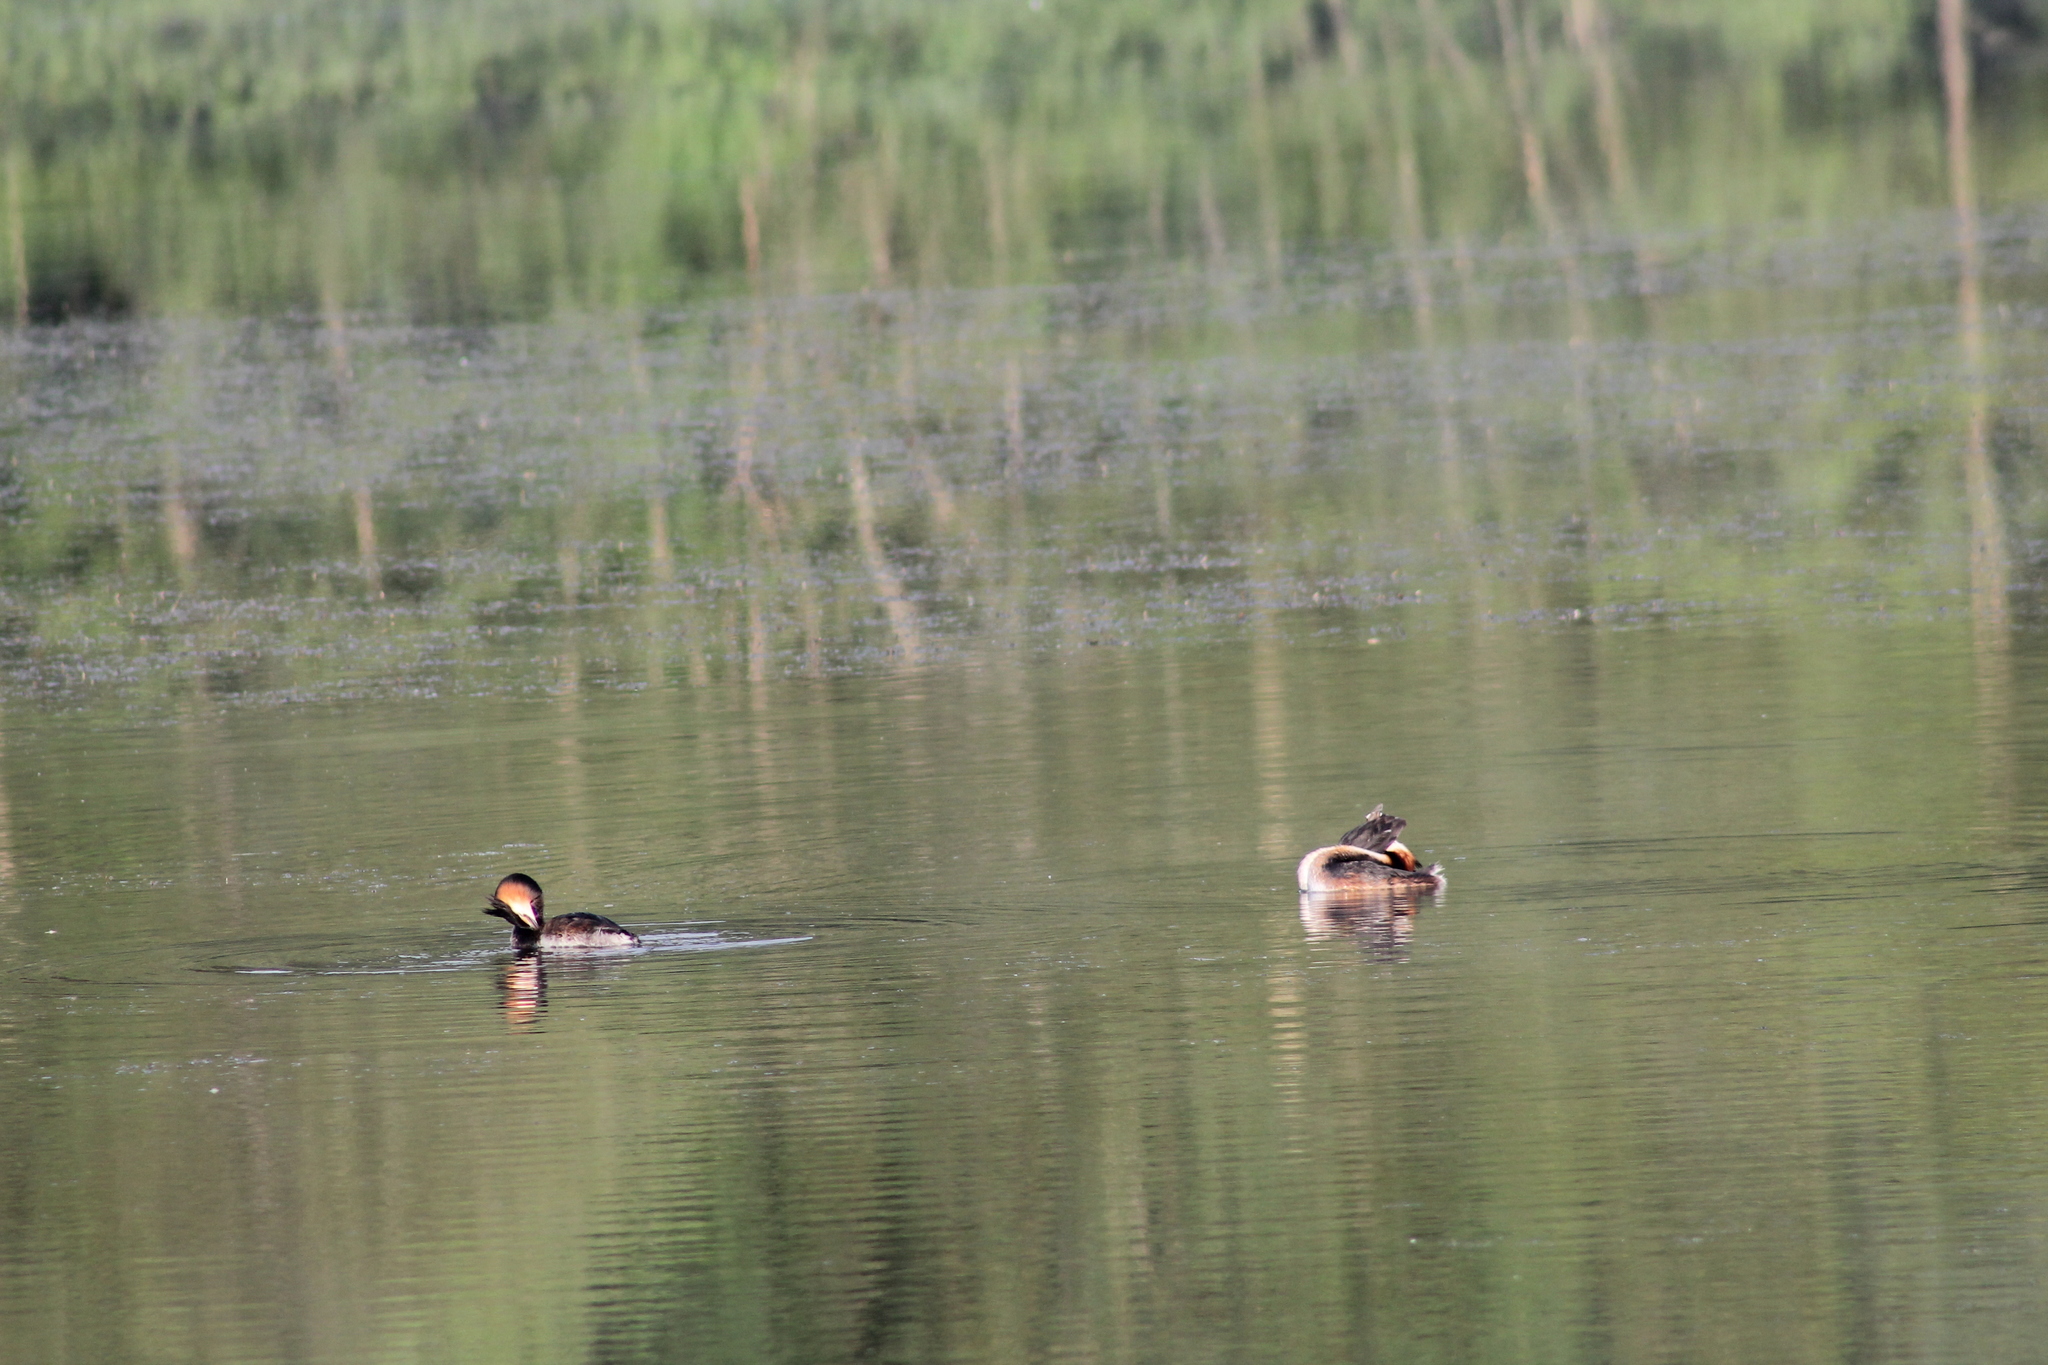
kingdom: Animalia
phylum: Chordata
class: Aves
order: Podicipediformes
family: Podicipedidae
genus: Podiceps
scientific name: Podiceps cristatus
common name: Great crested grebe
